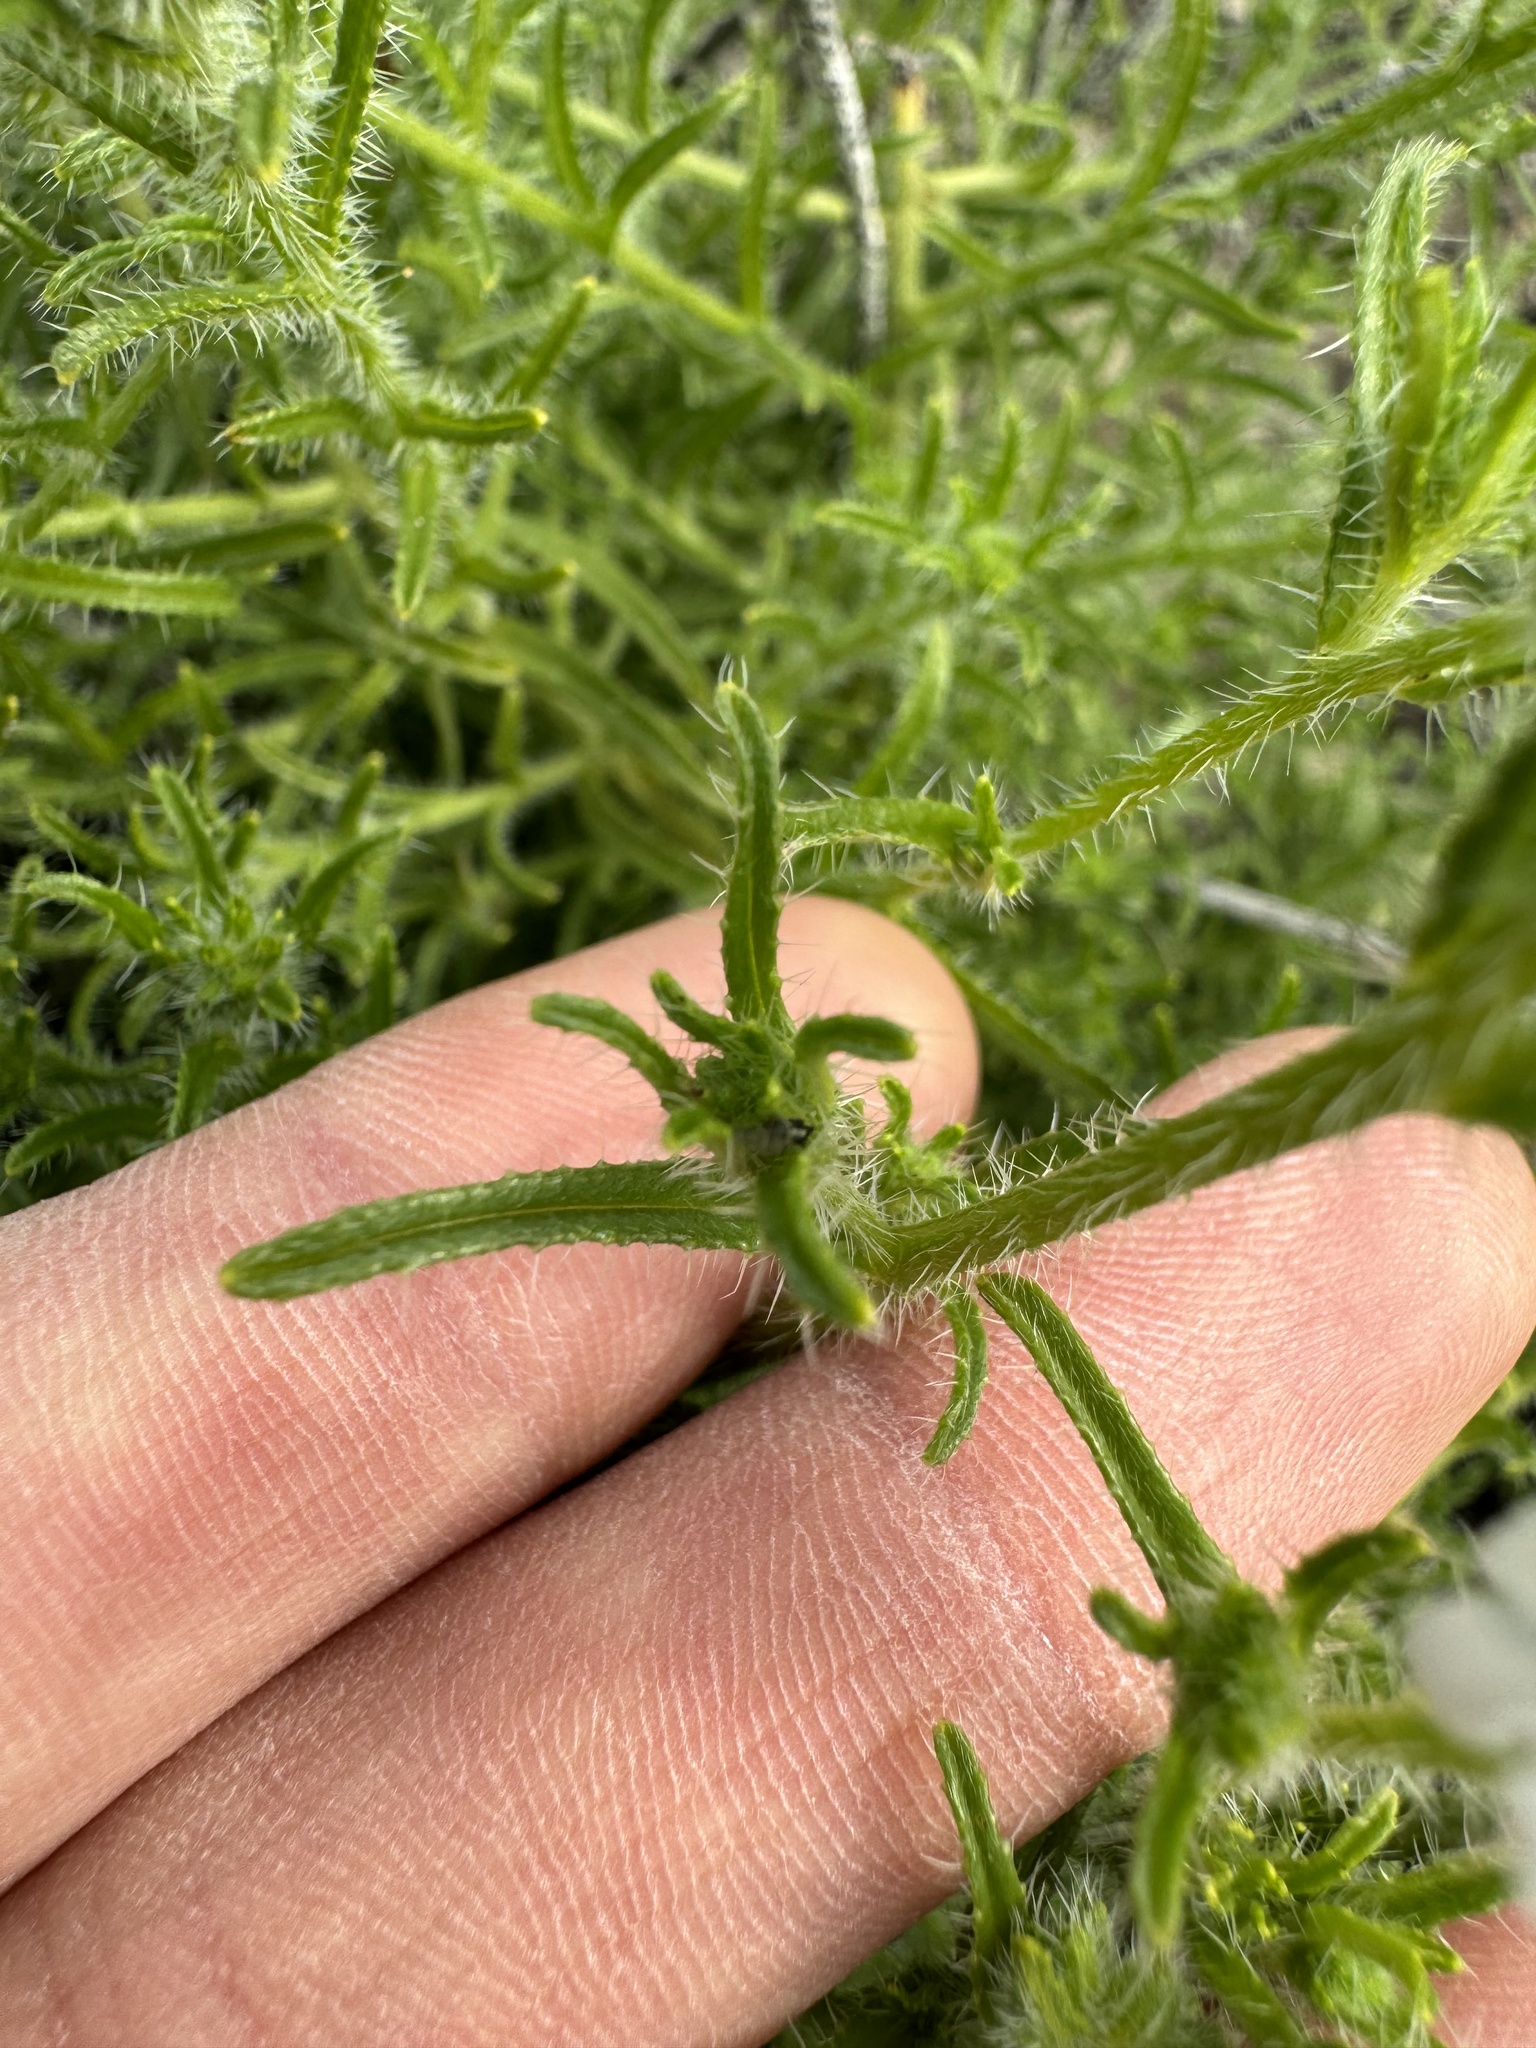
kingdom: Plantae
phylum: Tracheophyta
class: Magnoliopsida
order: Boraginales
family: Boraginaceae
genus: Cryptantha
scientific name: Cryptantha kinkiensis
